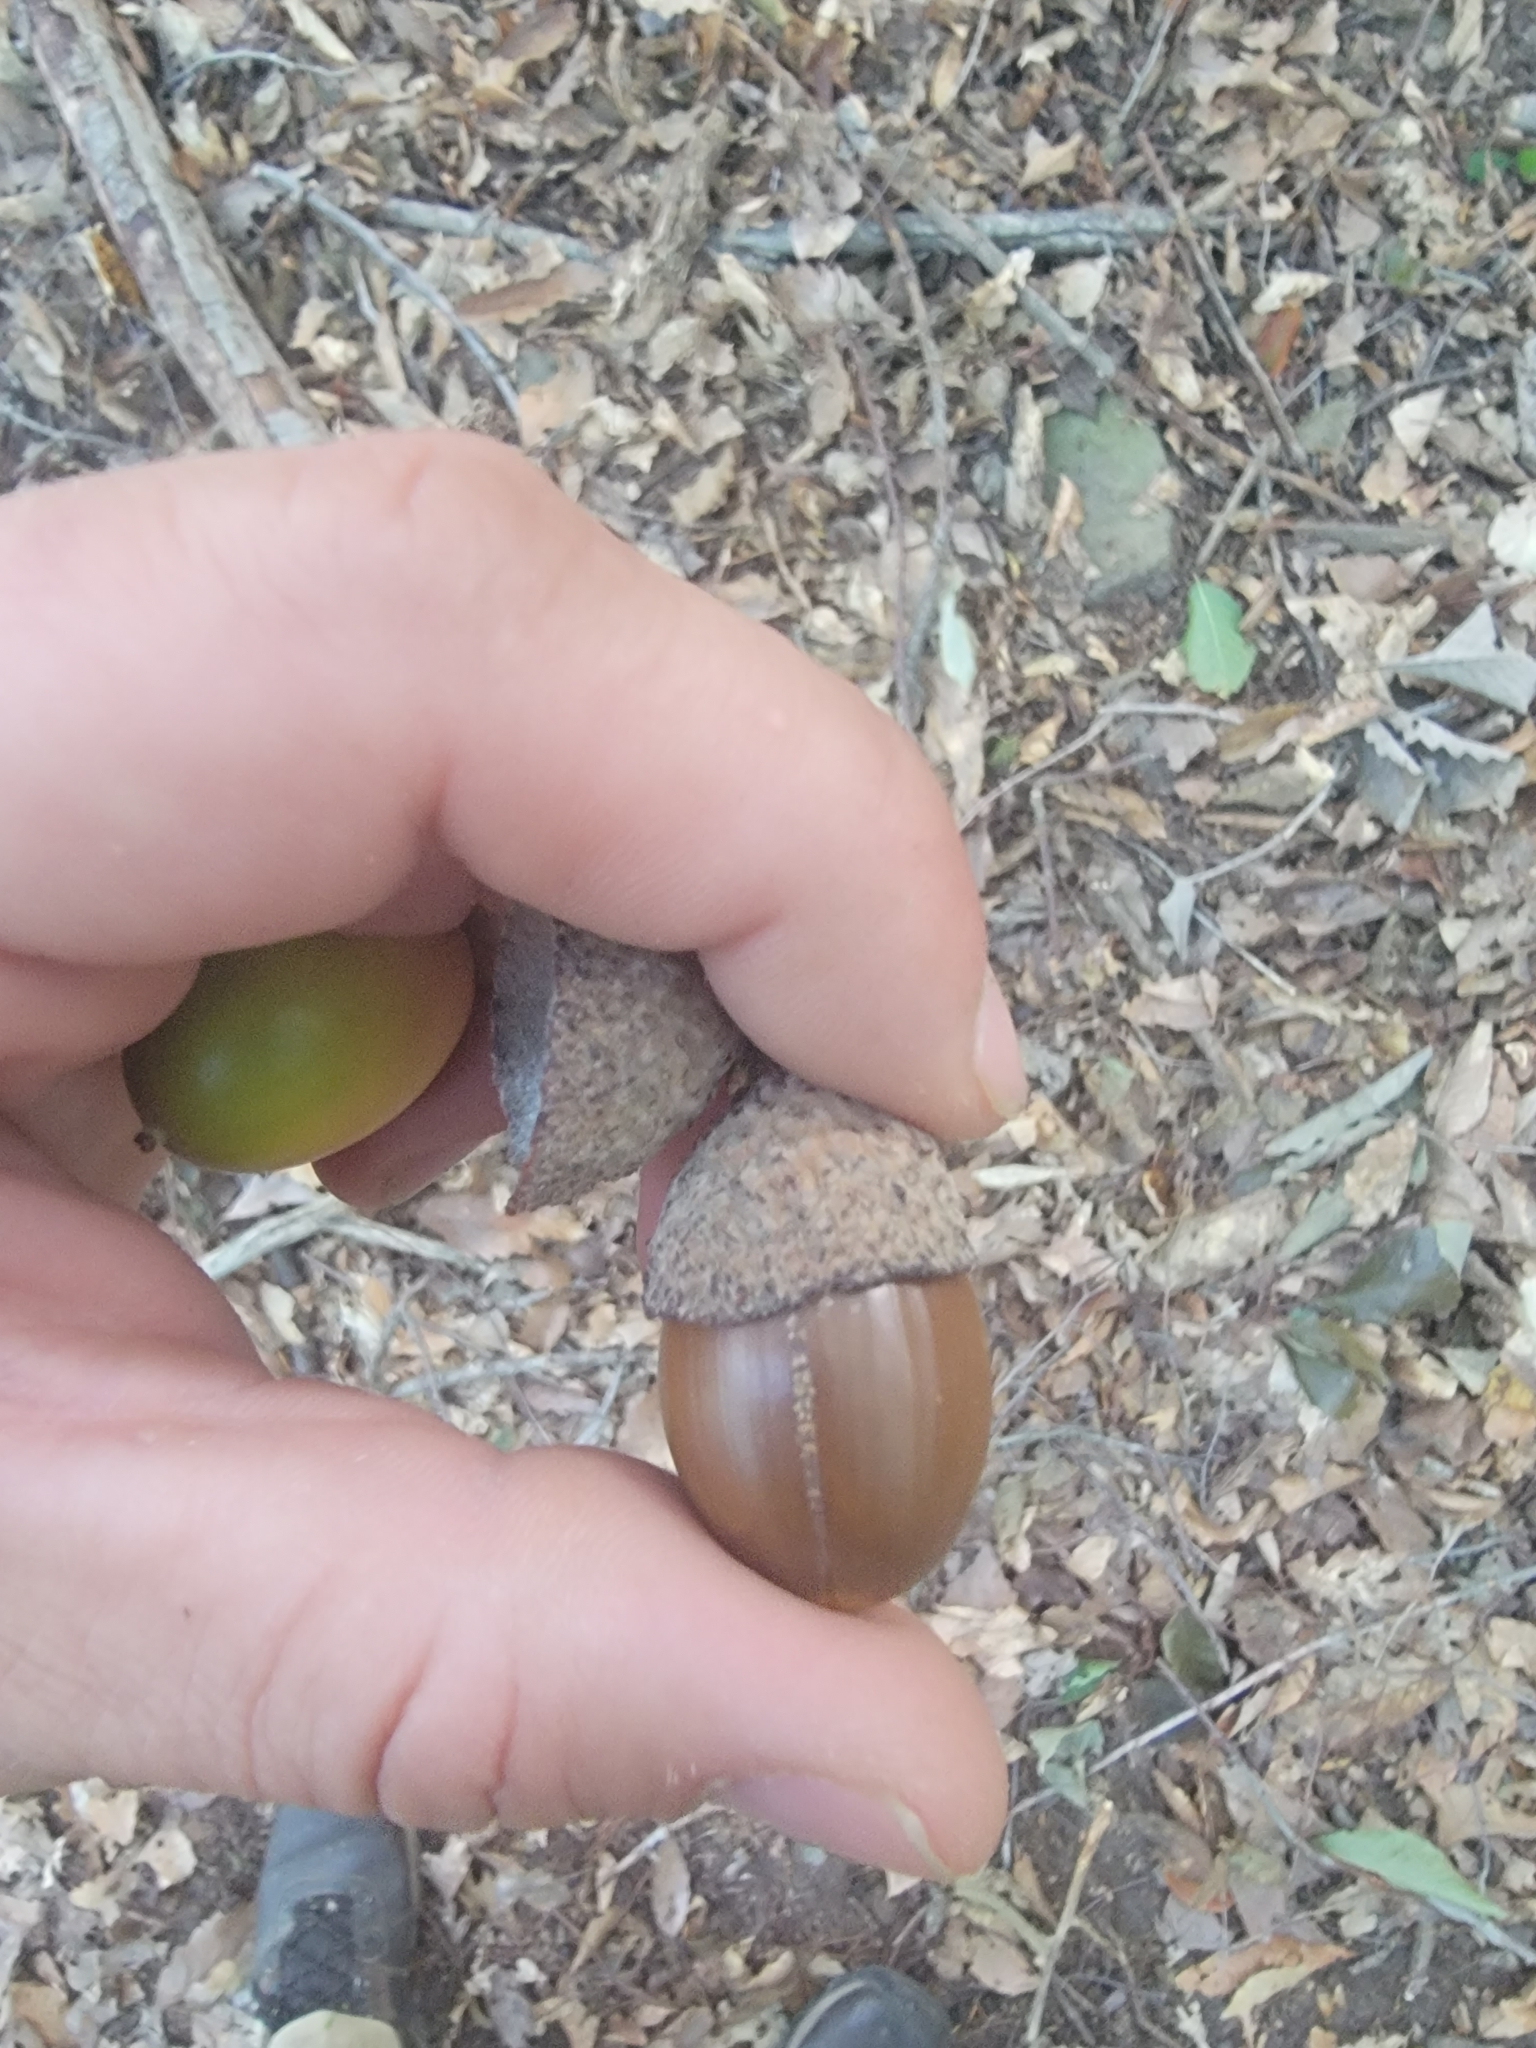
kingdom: Plantae
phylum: Tracheophyta
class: Magnoliopsida
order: Fagales
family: Fagaceae
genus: Quercus
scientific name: Quercus montana
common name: Chestnut oak
